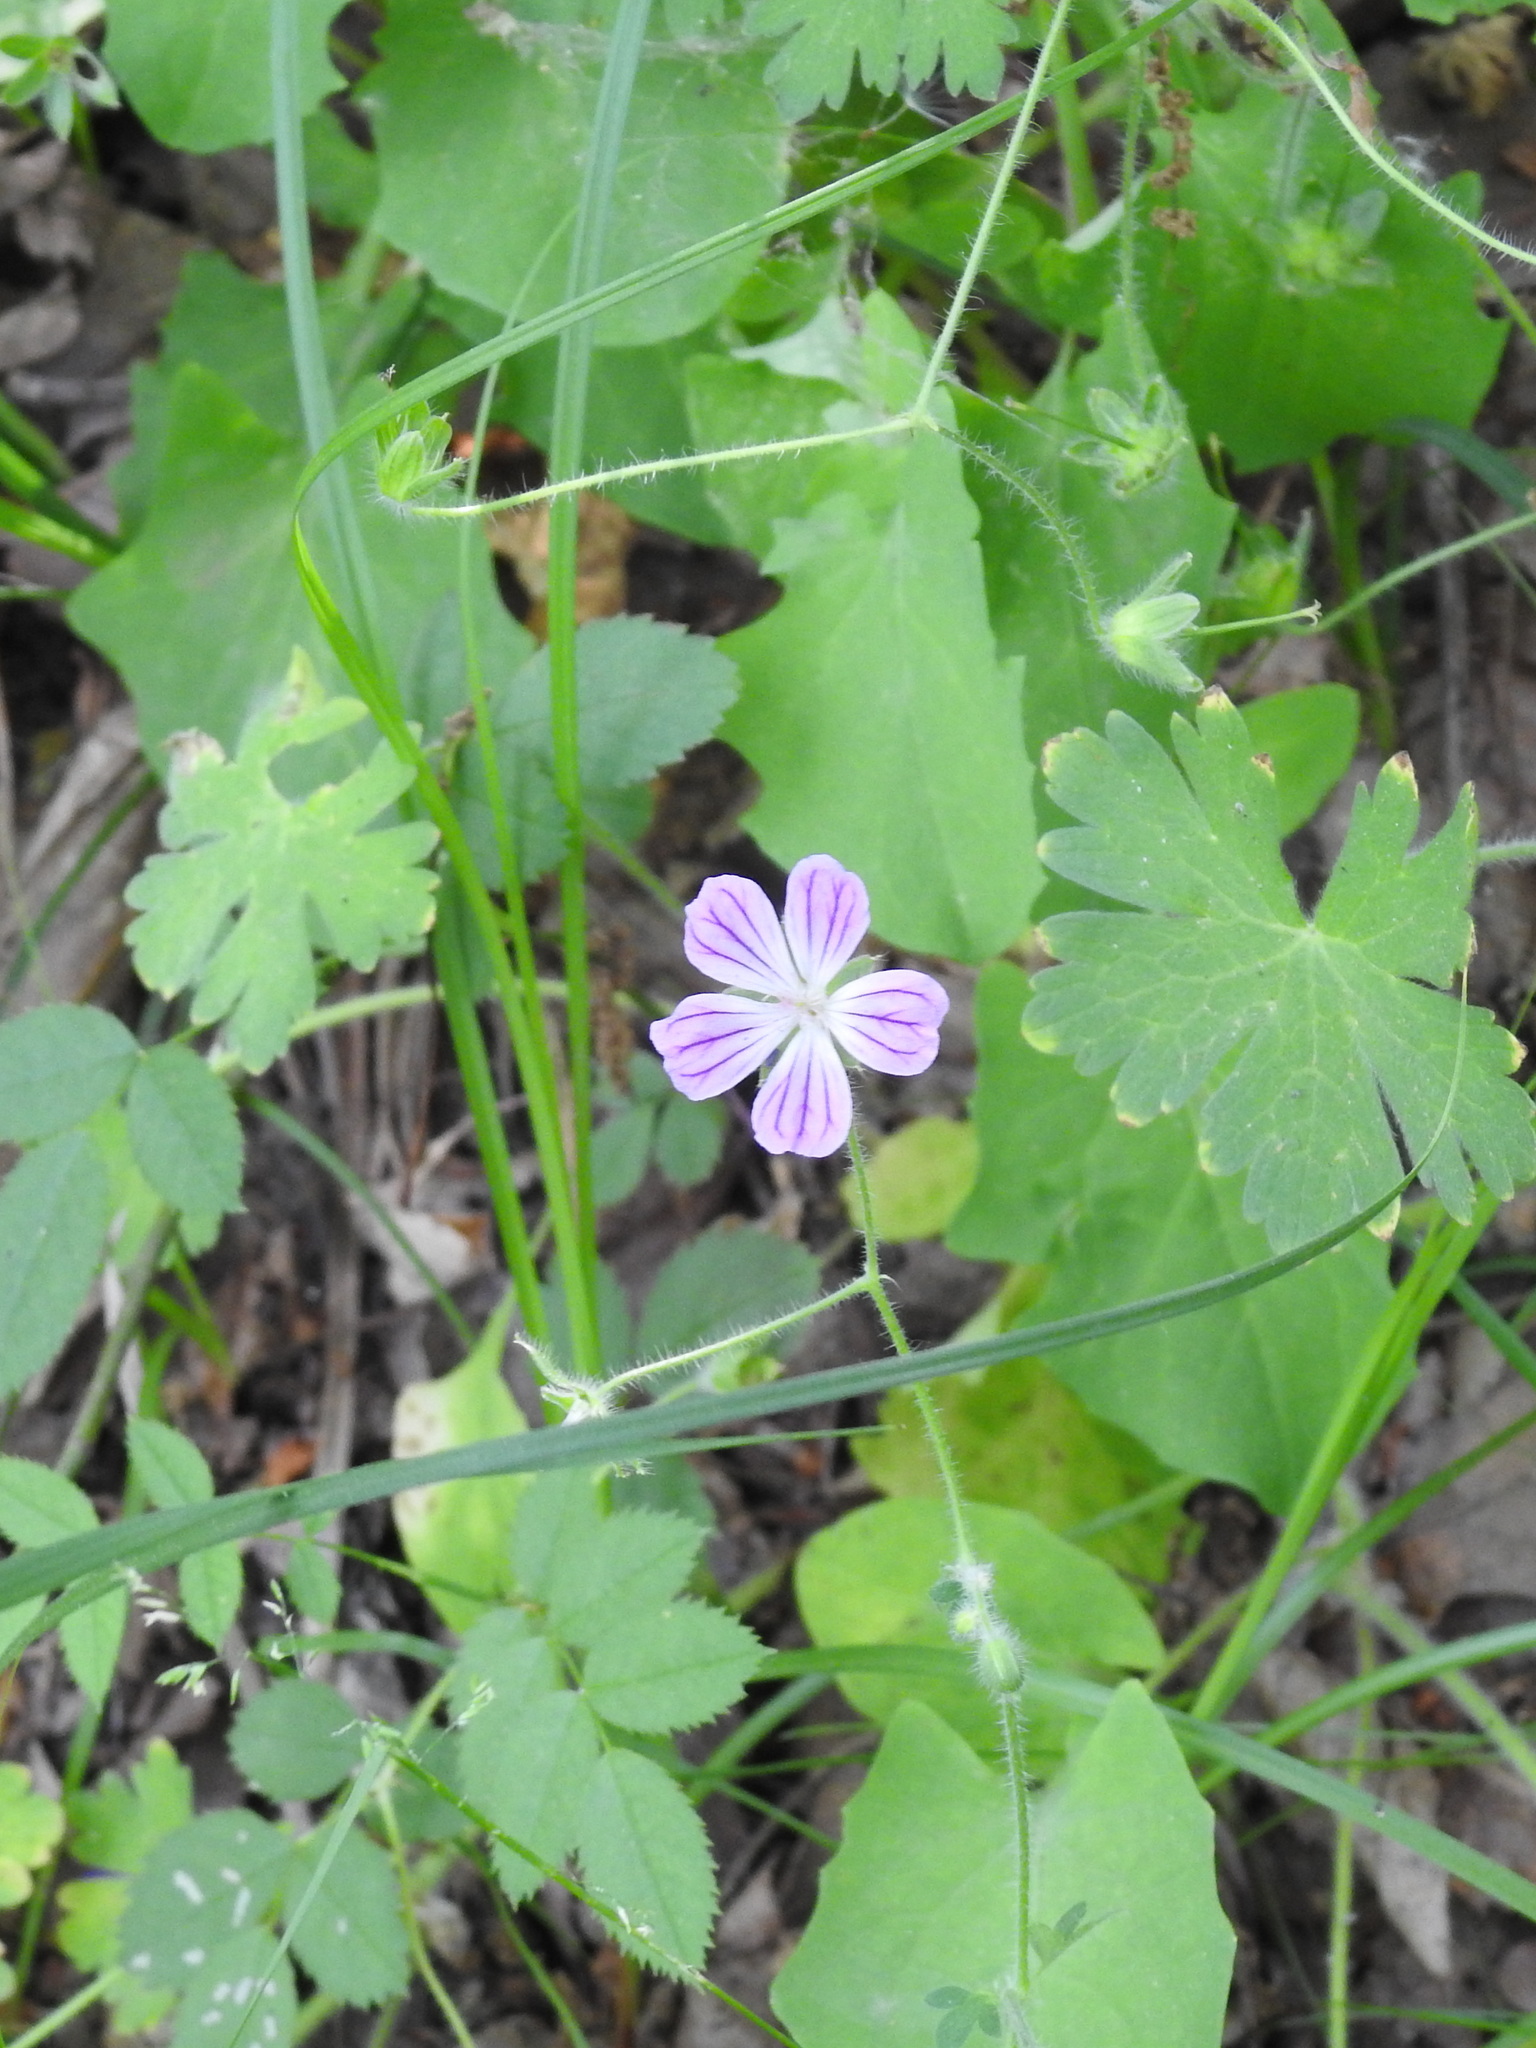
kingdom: Plantae
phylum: Tracheophyta
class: Magnoliopsida
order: Geraniales
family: Geraniaceae
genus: Geranium
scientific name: Geranium albanum
